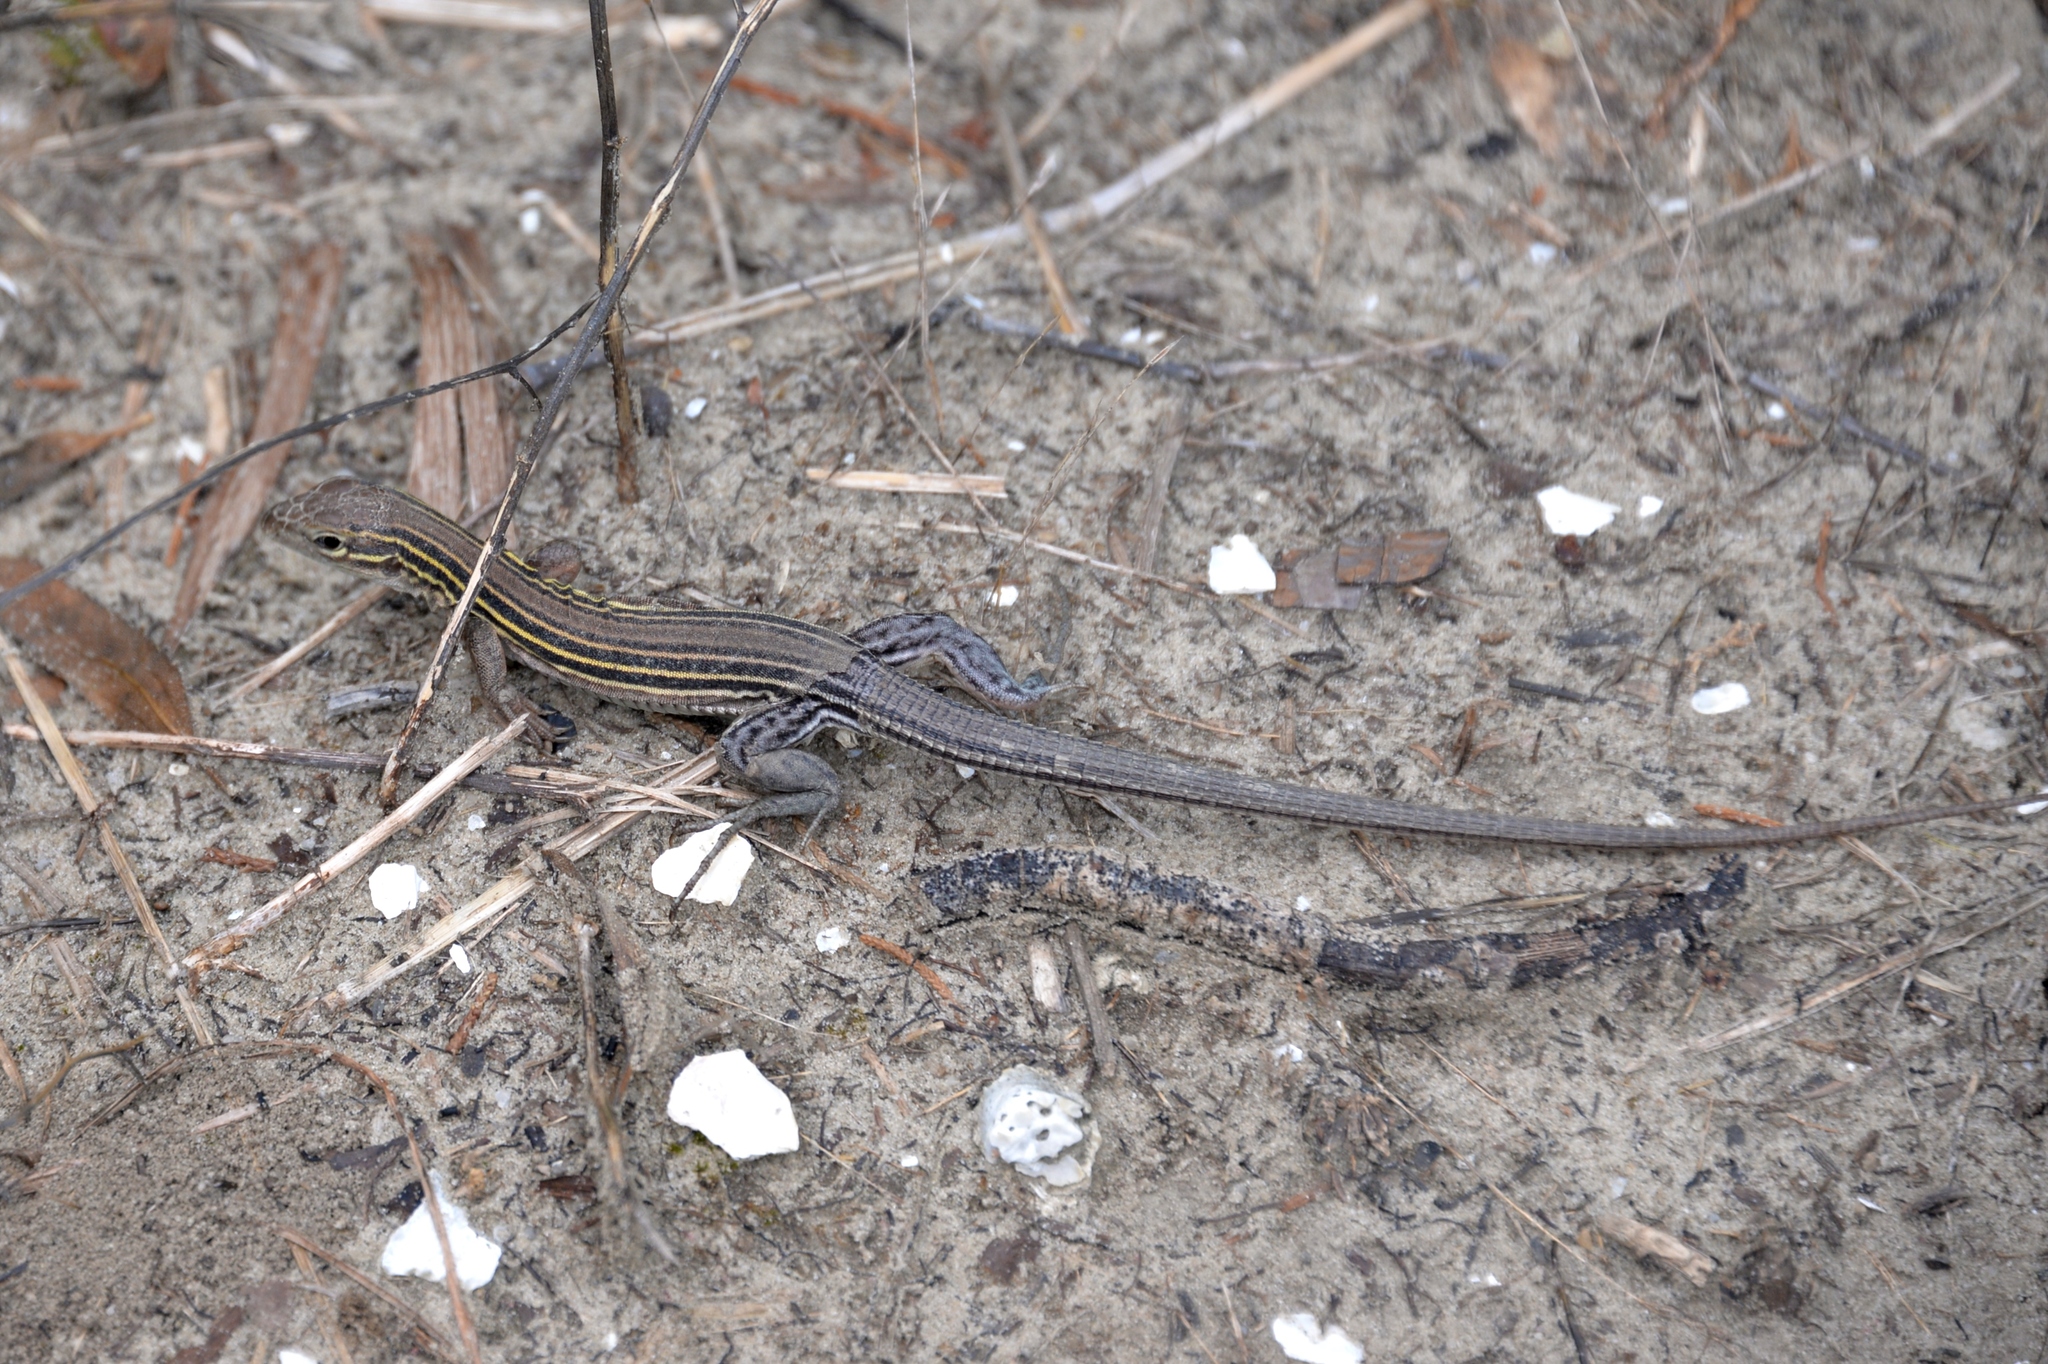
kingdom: Animalia
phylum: Chordata
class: Squamata
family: Teiidae
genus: Aspidoscelis
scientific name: Aspidoscelis sexlineatus
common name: Six-lined racerunner
